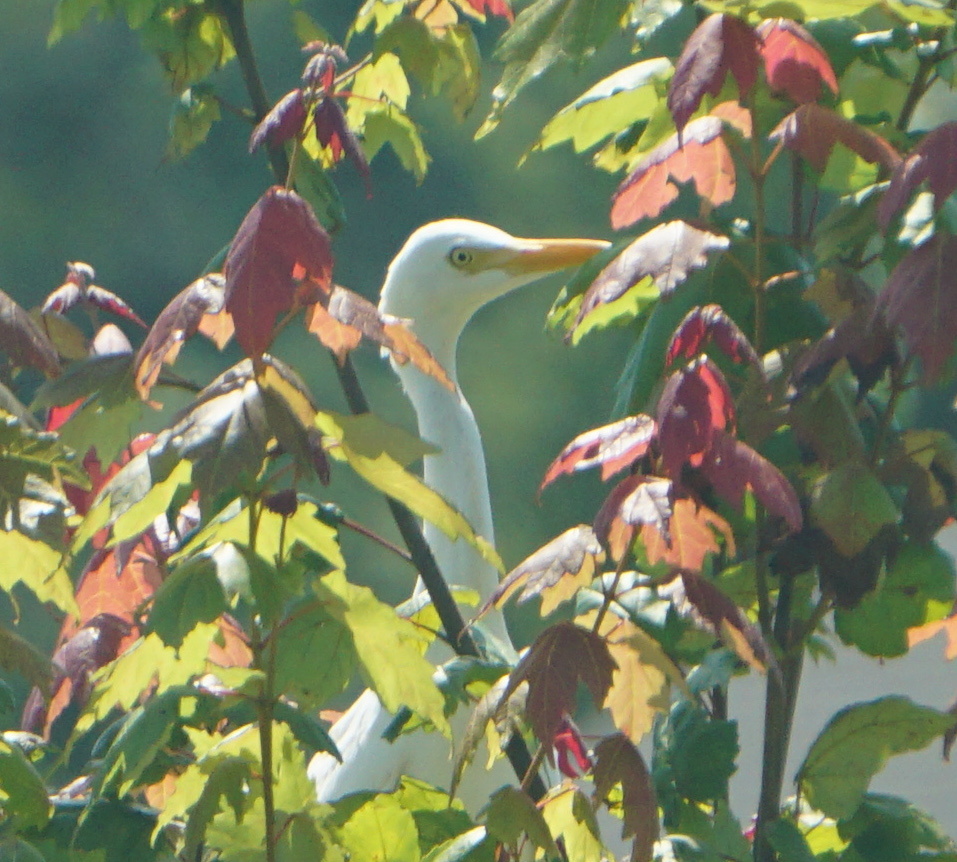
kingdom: Animalia
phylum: Chordata
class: Aves
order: Pelecaniformes
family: Ardeidae
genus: Bubulcus
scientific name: Bubulcus ibis
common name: Cattle egret
